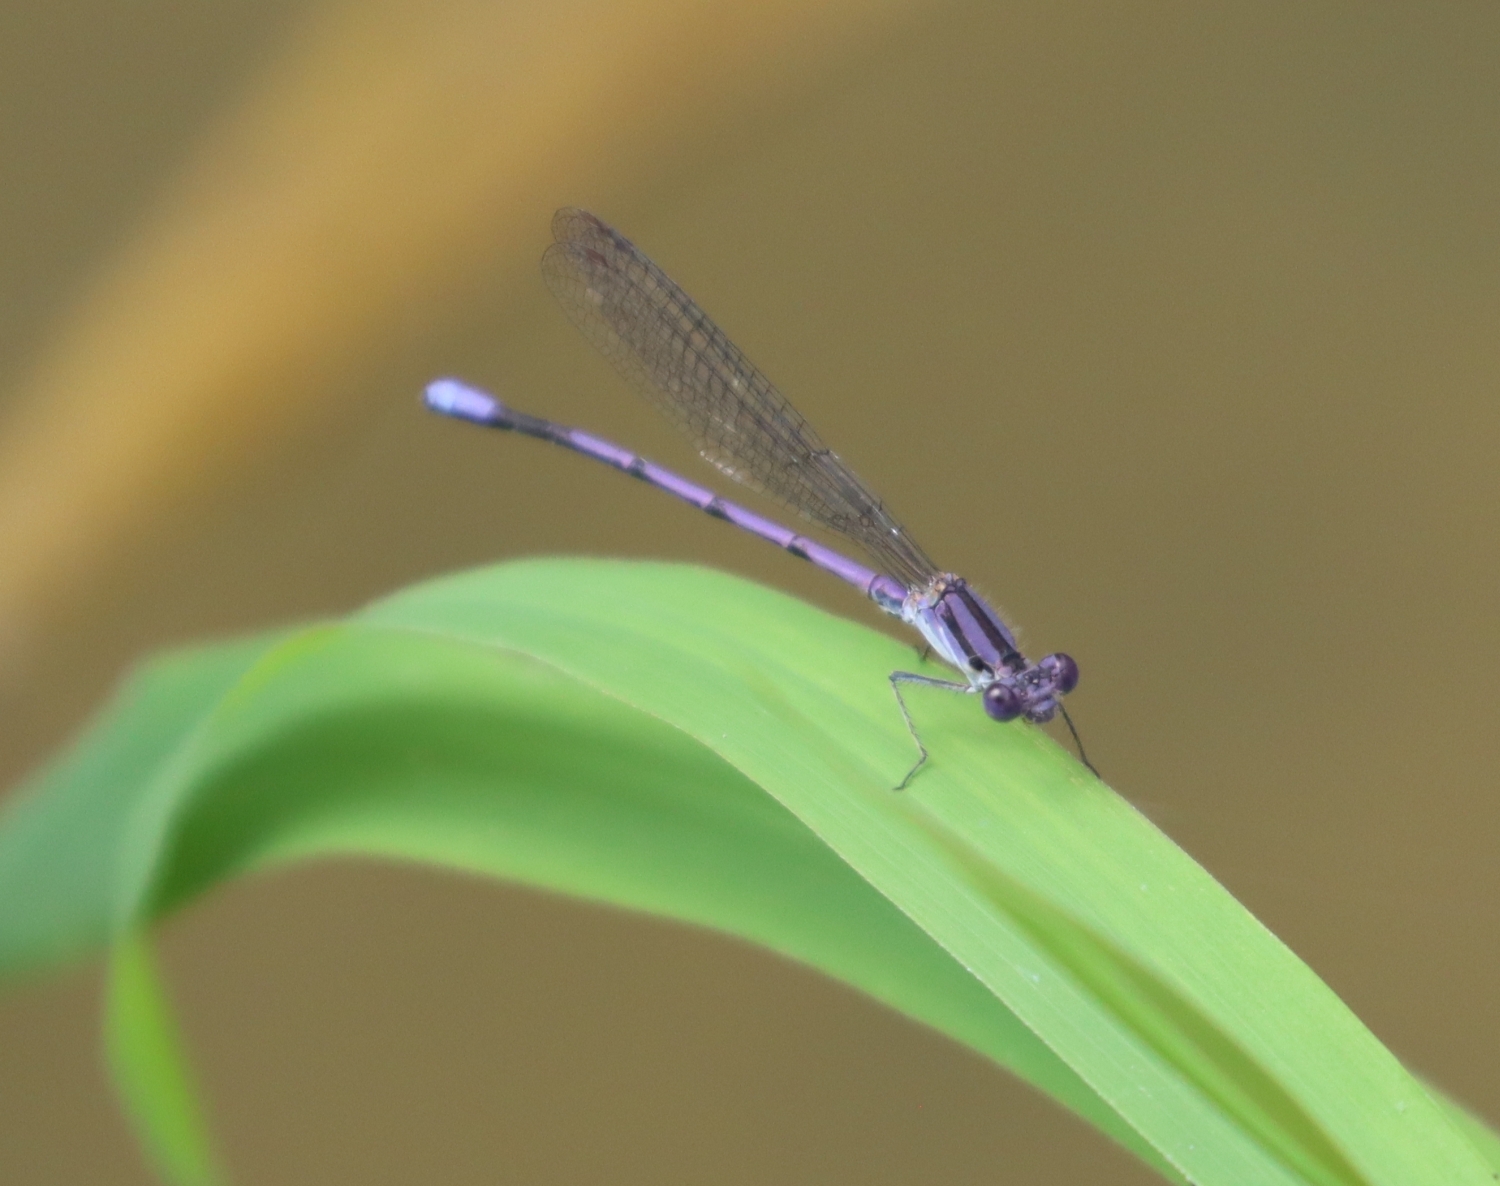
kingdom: Animalia
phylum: Arthropoda
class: Insecta
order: Odonata
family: Coenagrionidae
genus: Argia
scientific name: Argia fumipennis
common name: Variable dancer
